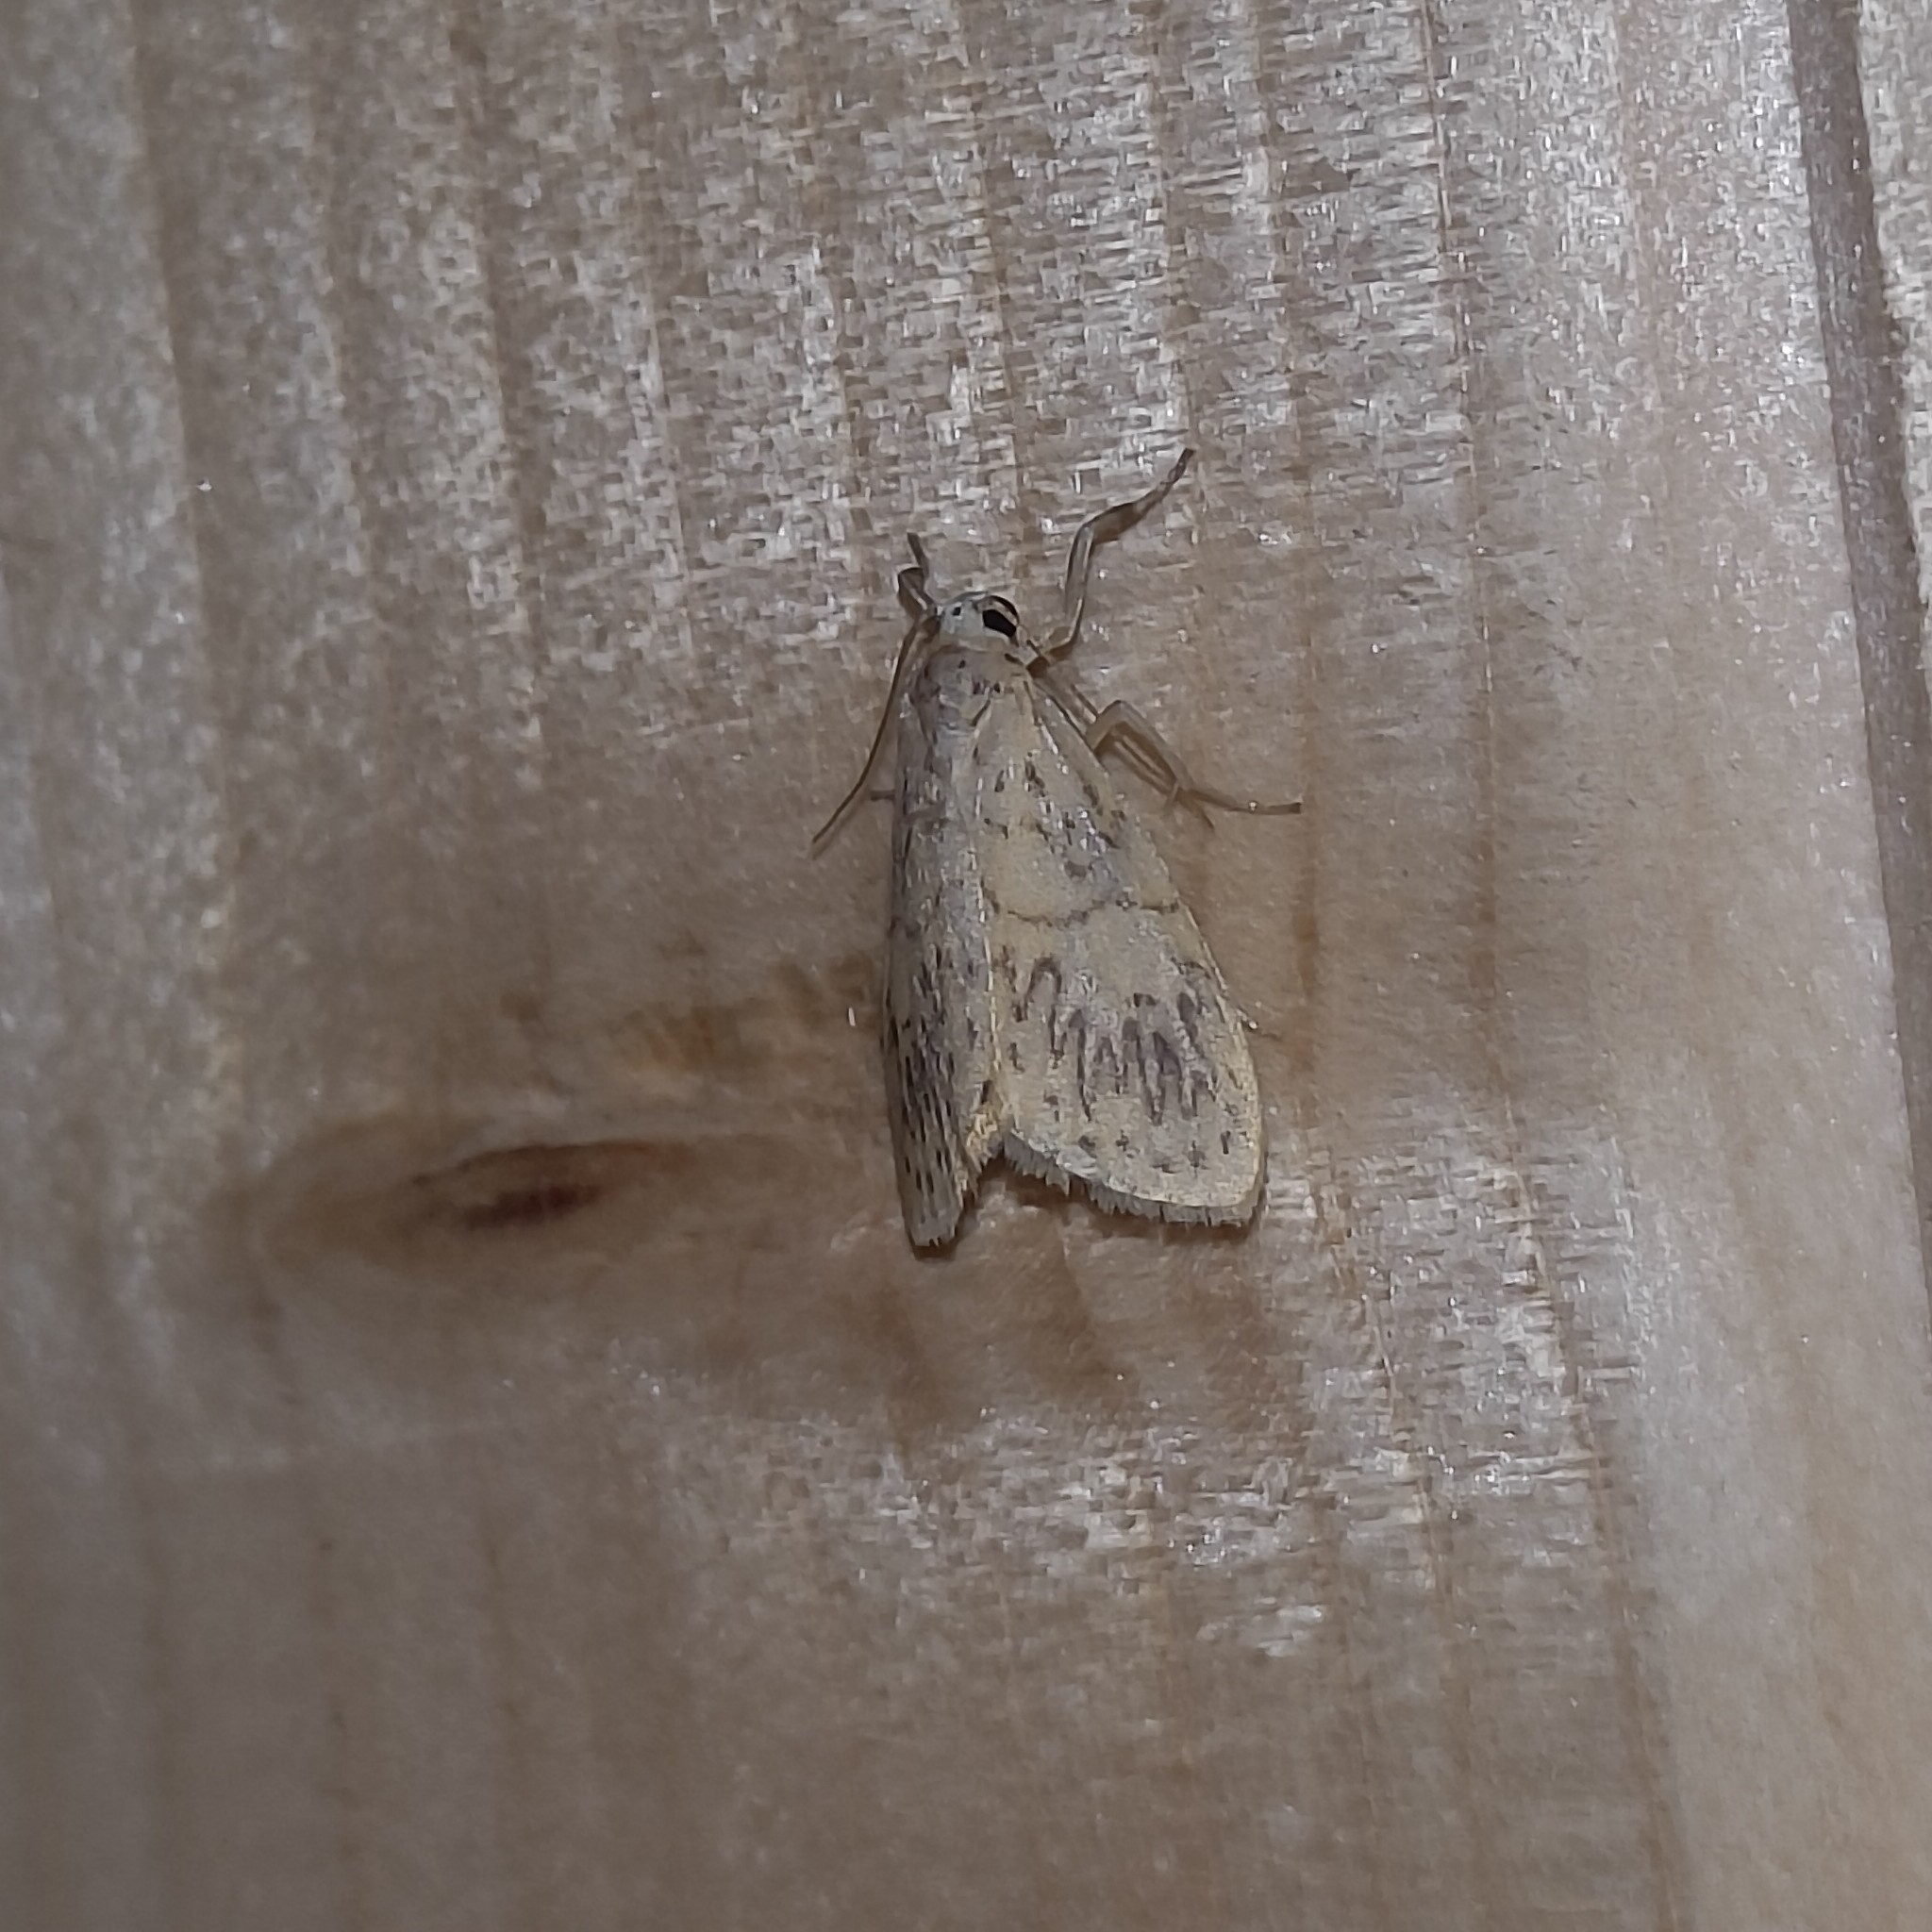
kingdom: Animalia
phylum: Arthropoda
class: Insecta
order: Lepidoptera
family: Erebidae
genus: Miltochrista
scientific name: Miltochrista undulosa
